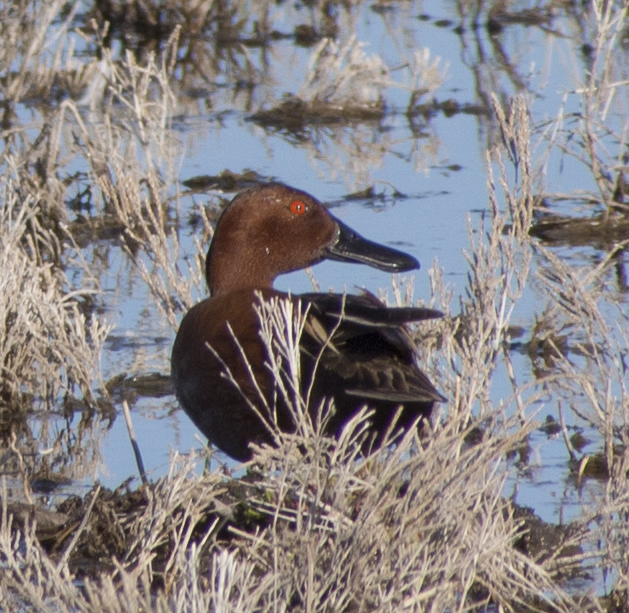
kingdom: Animalia
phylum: Chordata
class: Aves
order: Anseriformes
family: Anatidae
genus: Spatula
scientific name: Spatula cyanoptera
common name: Cinnamon teal
